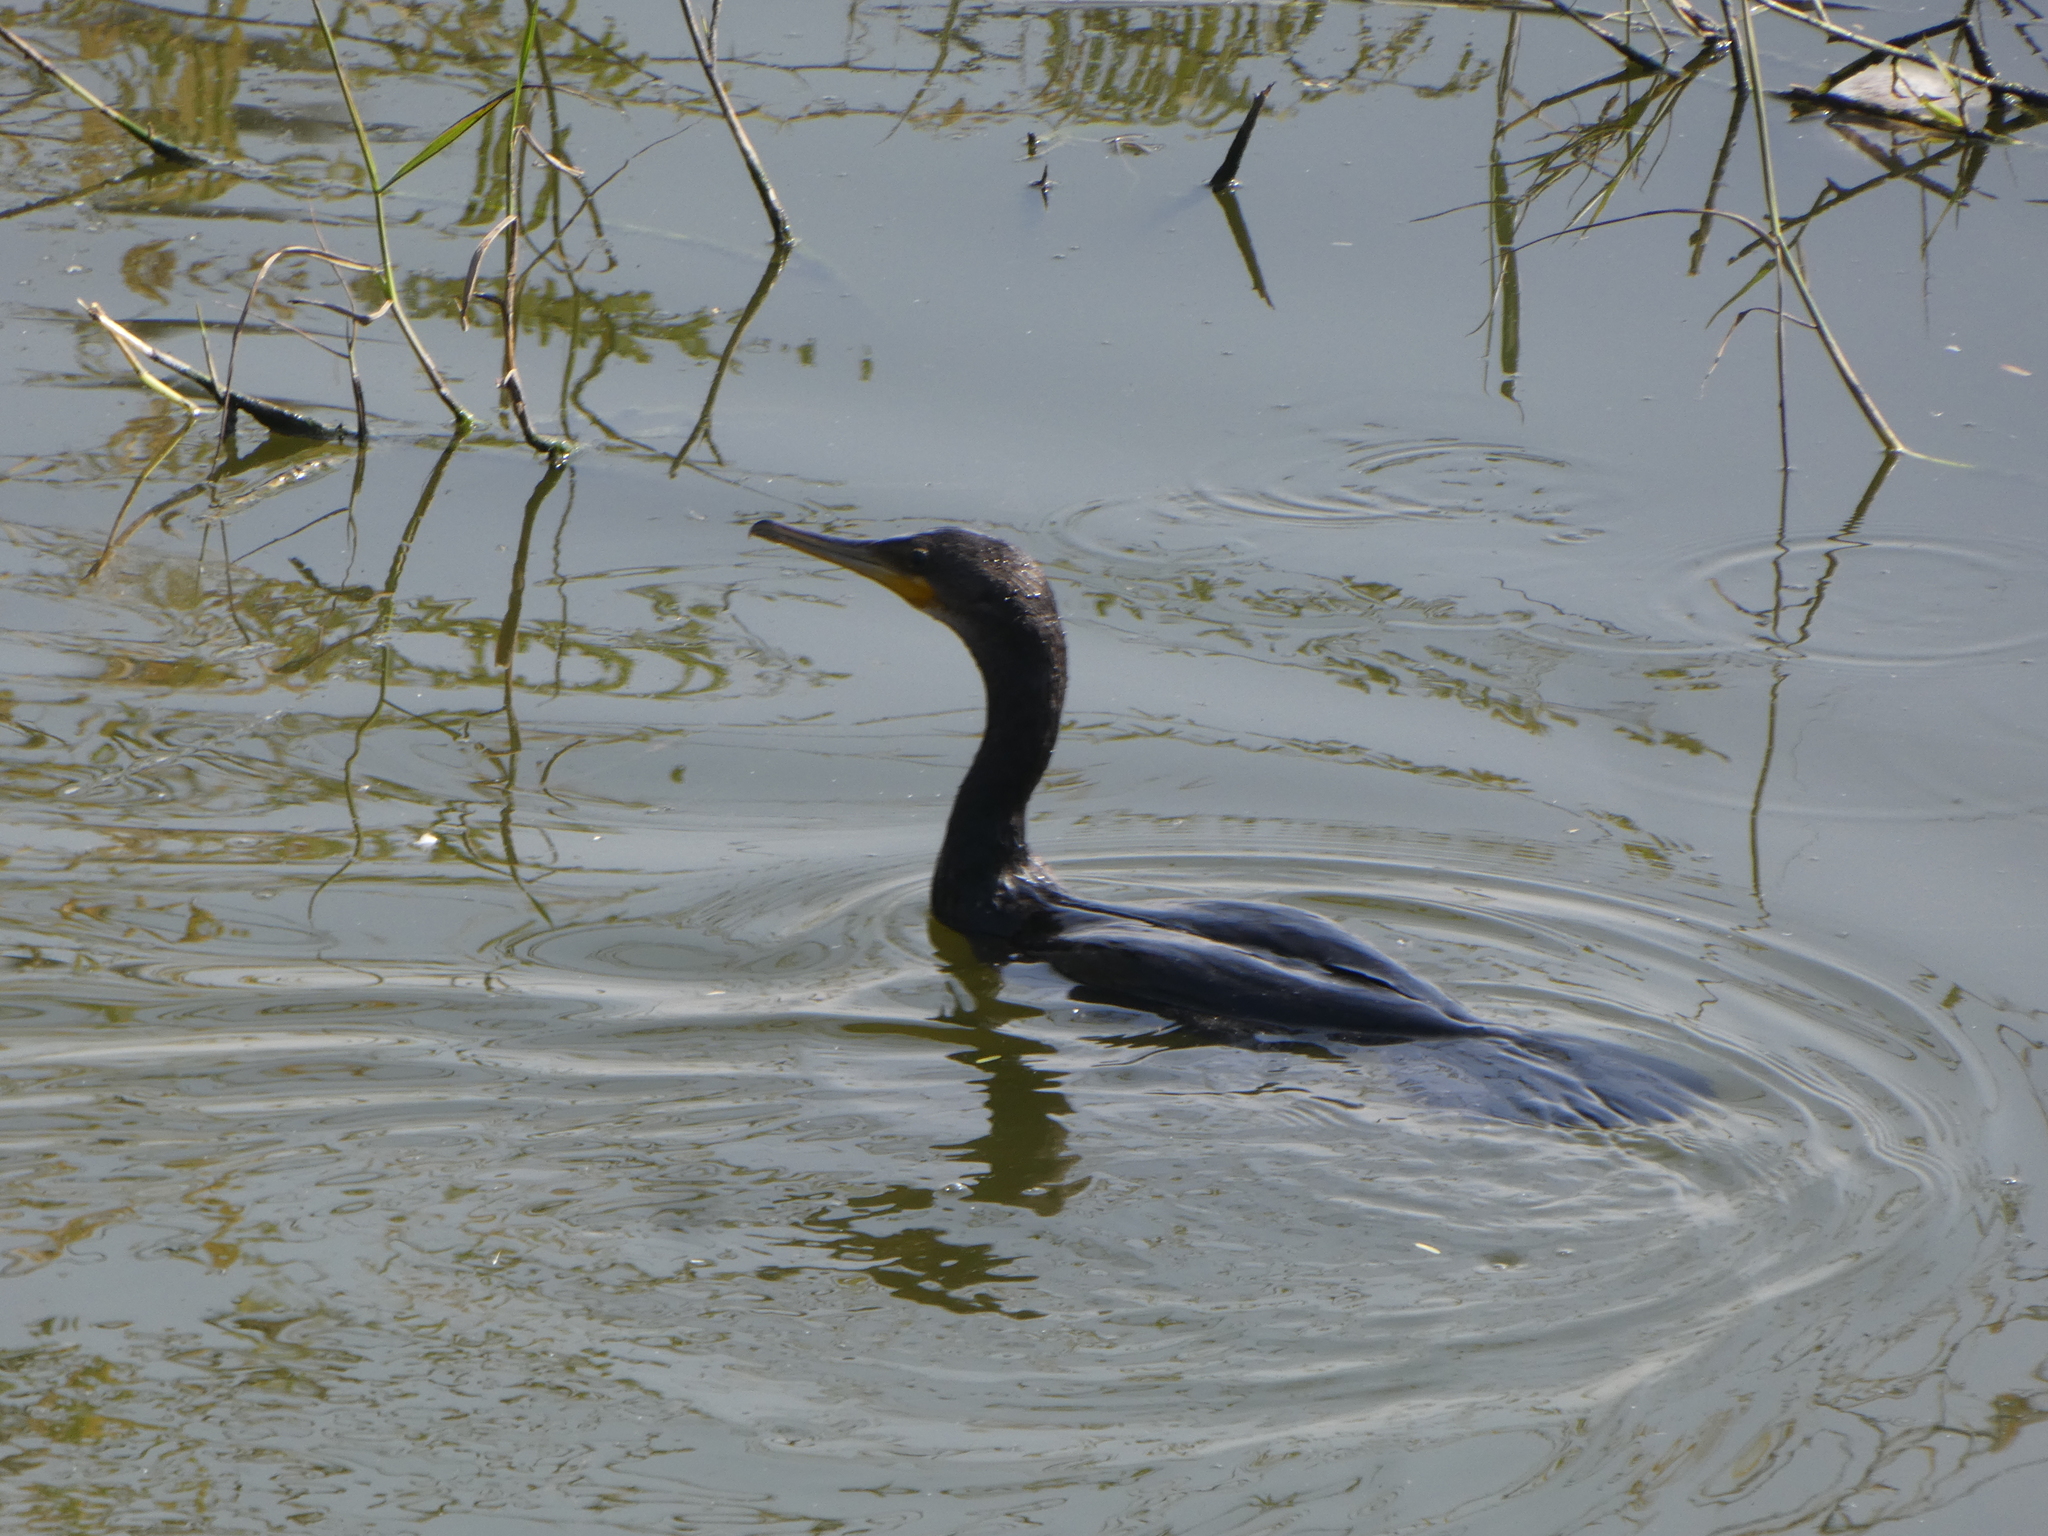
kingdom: Animalia
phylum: Chordata
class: Aves
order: Suliformes
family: Phalacrocoracidae
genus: Phalacrocorax
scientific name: Phalacrocorax carbo
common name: Great cormorant
